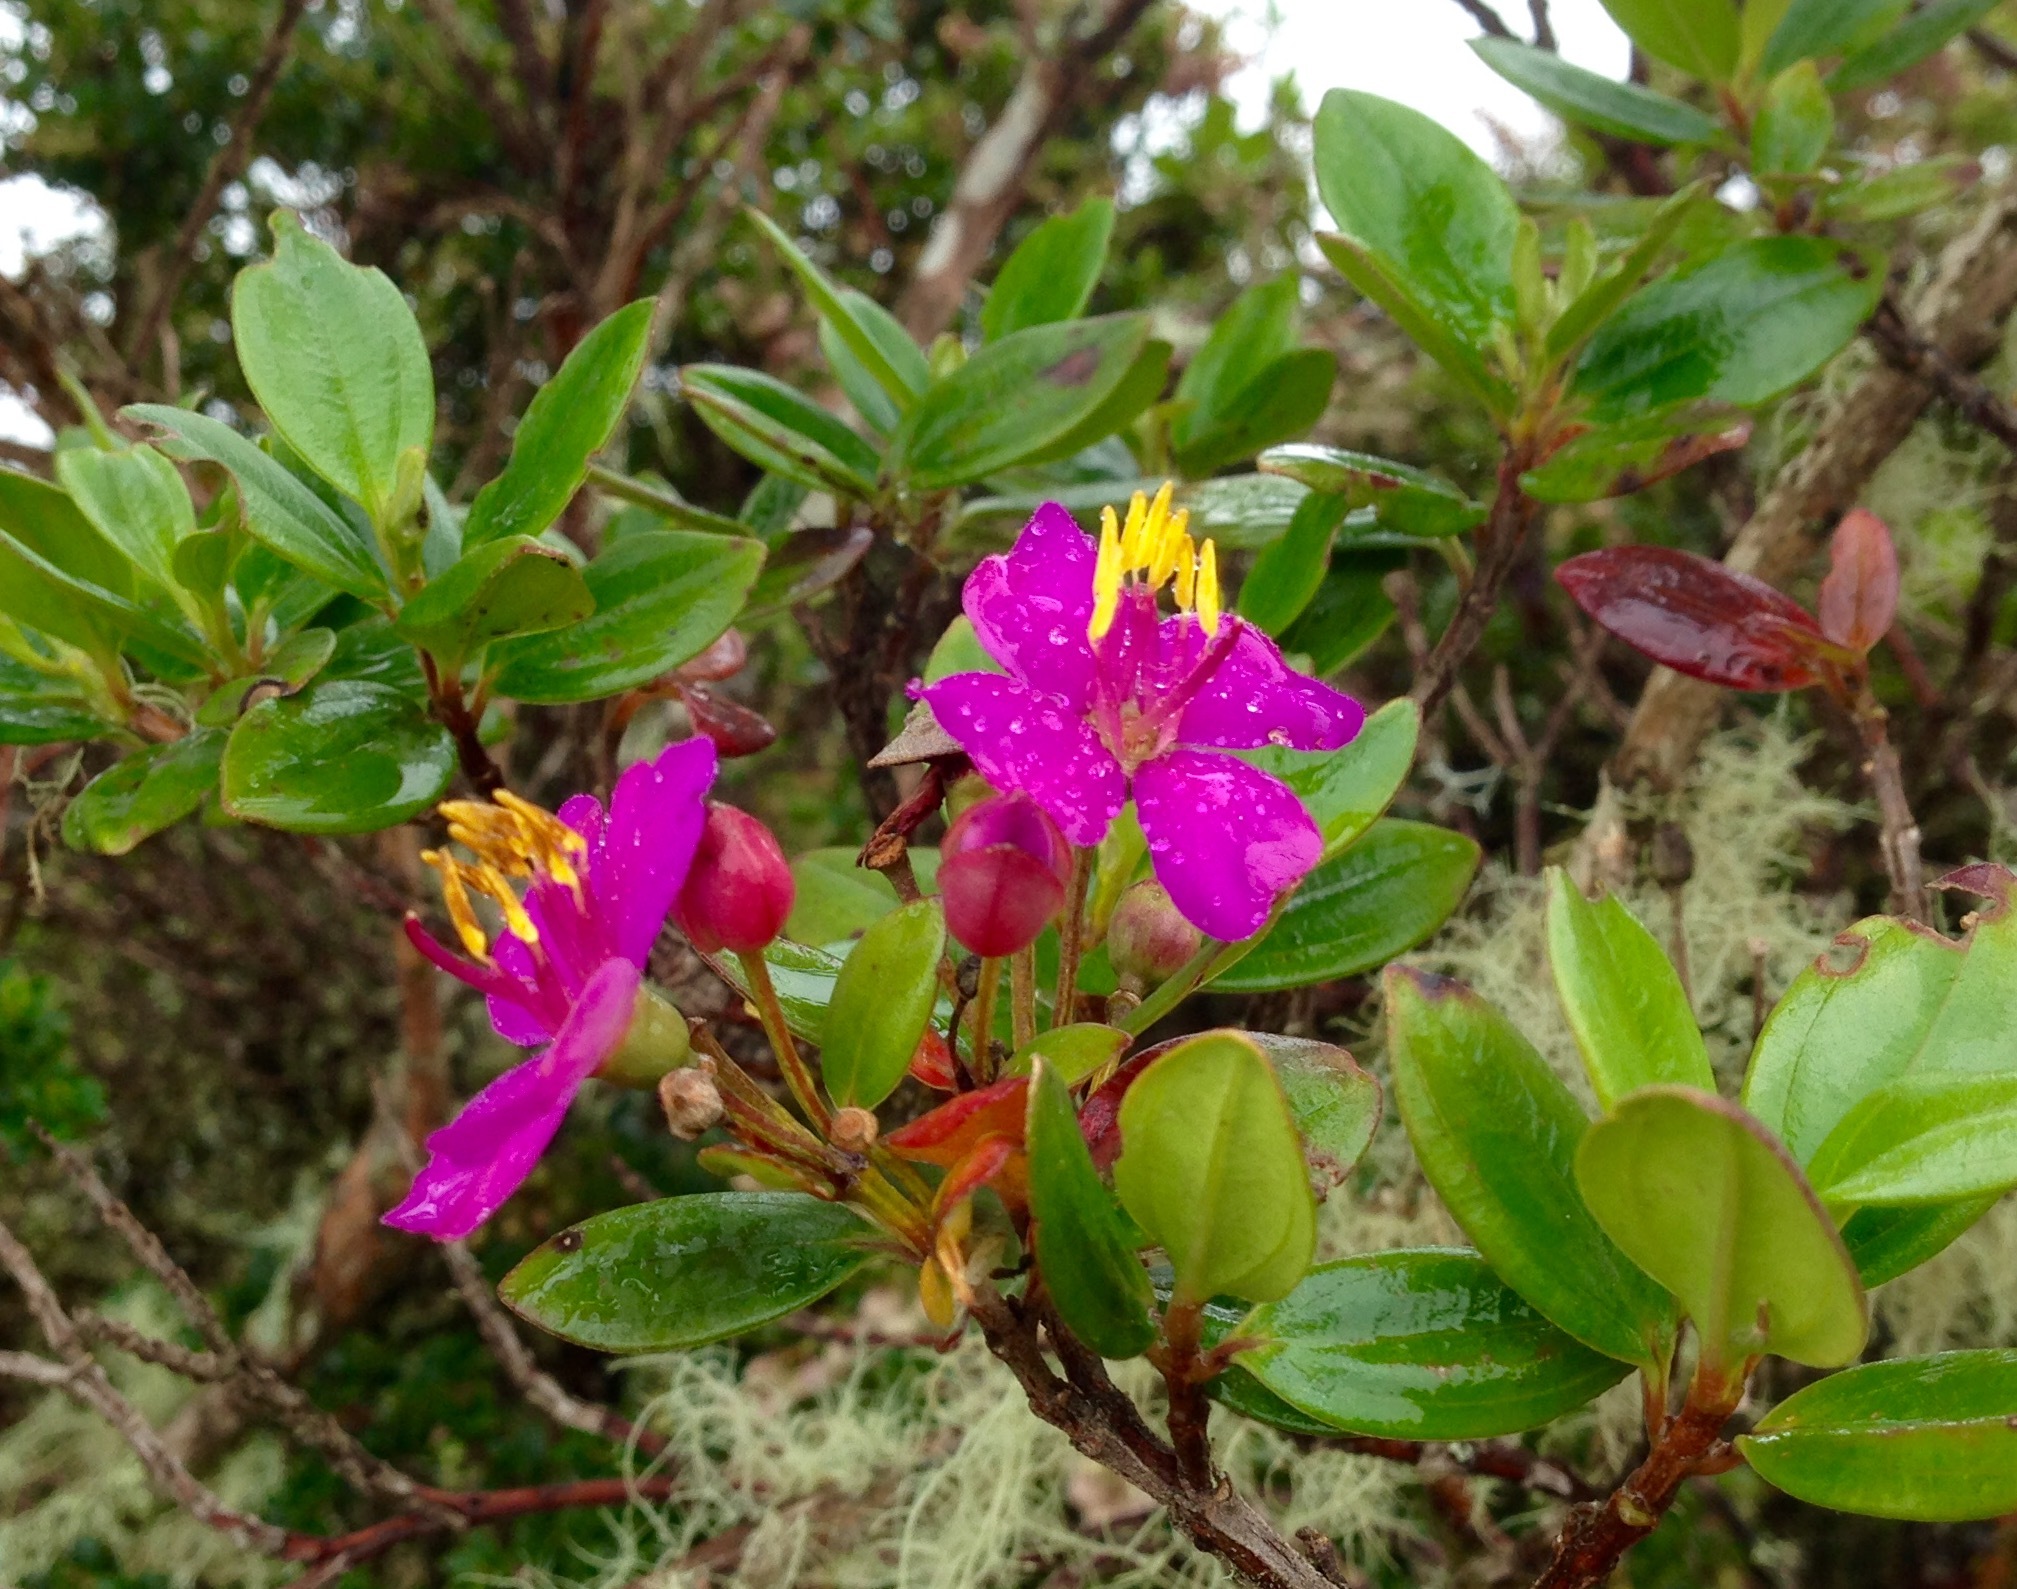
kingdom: Plantae
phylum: Tracheophyta
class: Magnoliopsida
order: Myrtales
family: Melastomataceae
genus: Bucquetia
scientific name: Bucquetia glutinosa
